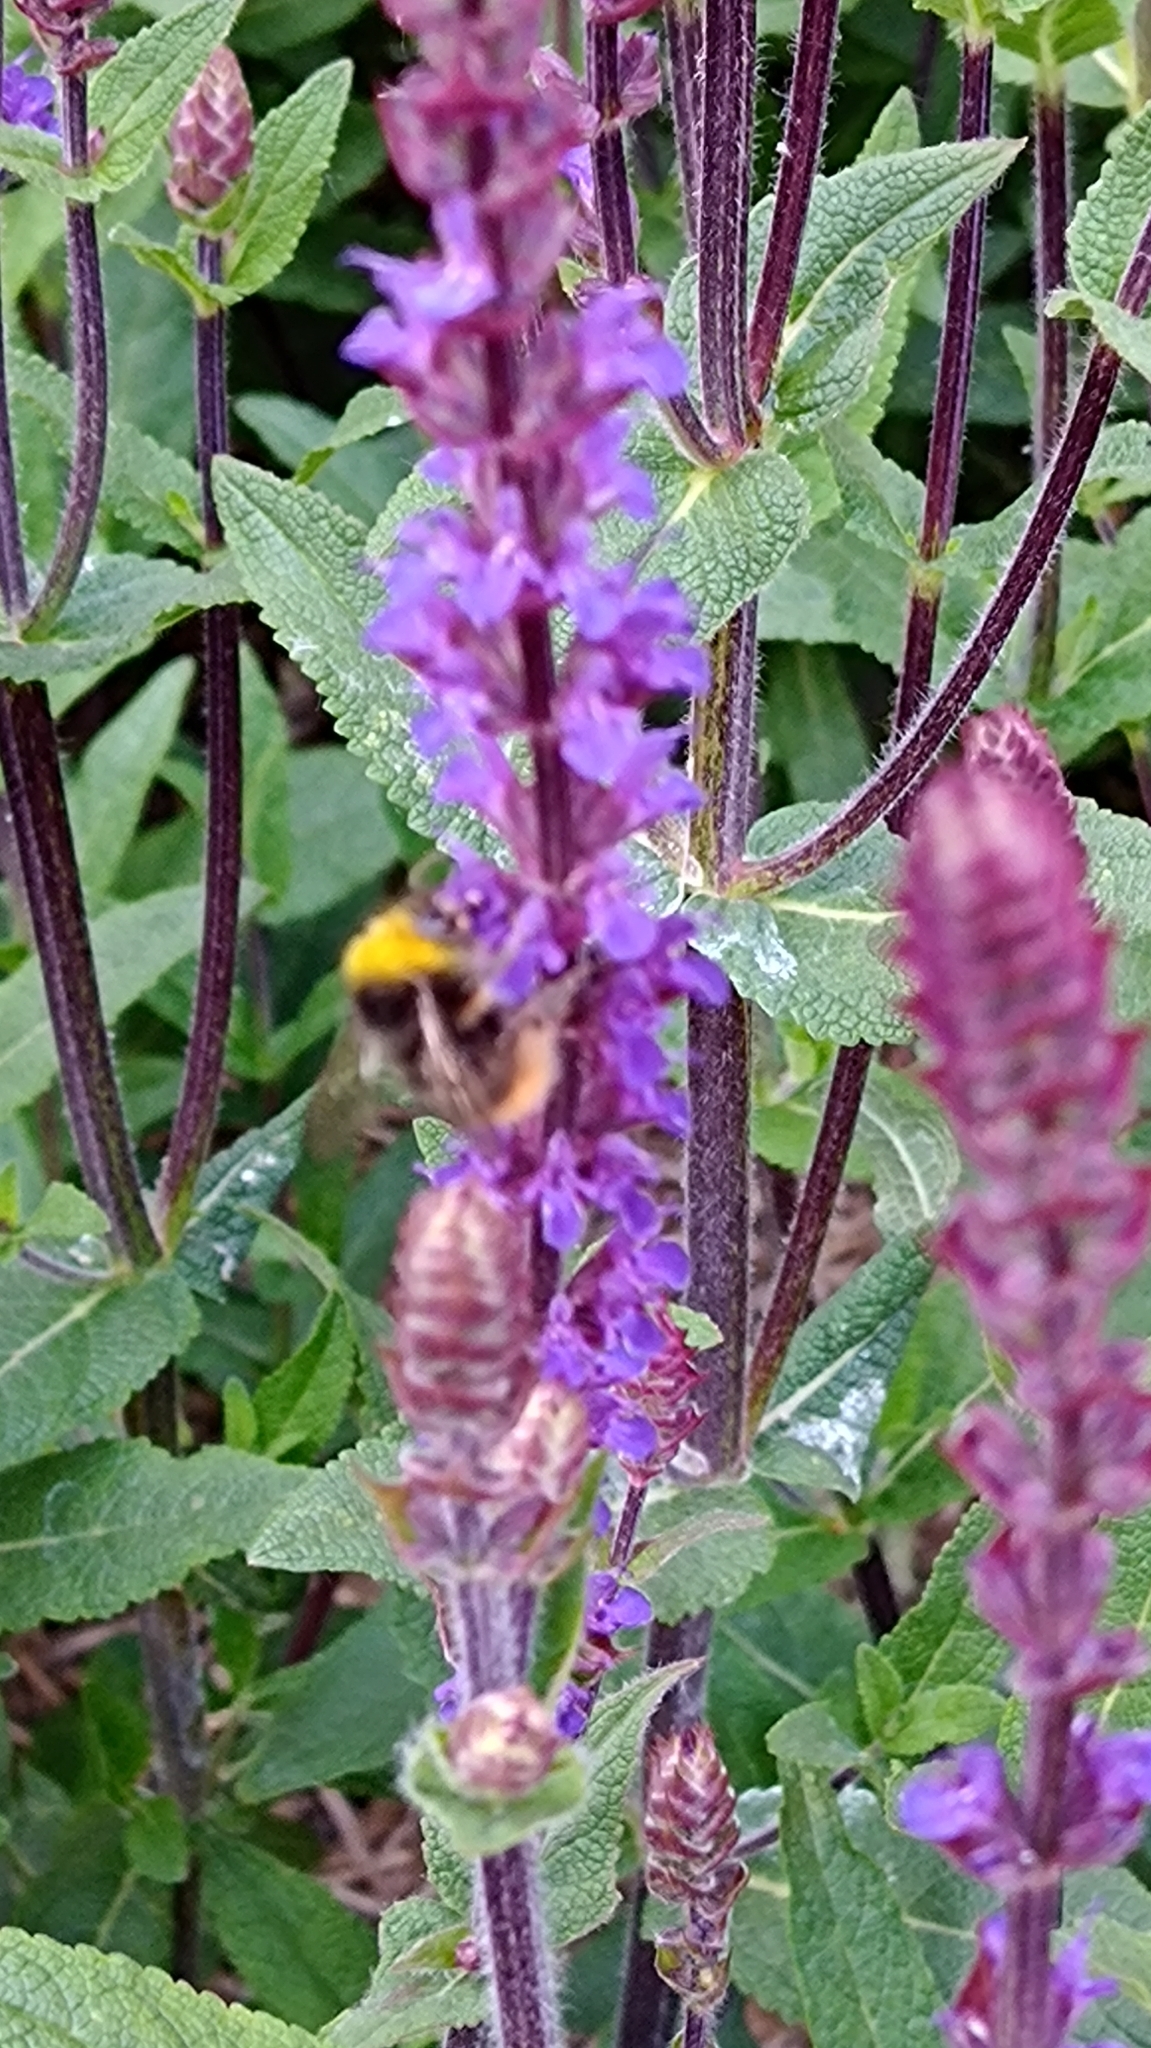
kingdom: Animalia
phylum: Arthropoda
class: Insecta
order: Hymenoptera
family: Apidae
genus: Bombus
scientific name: Bombus pratorum
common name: Early humble-bee
